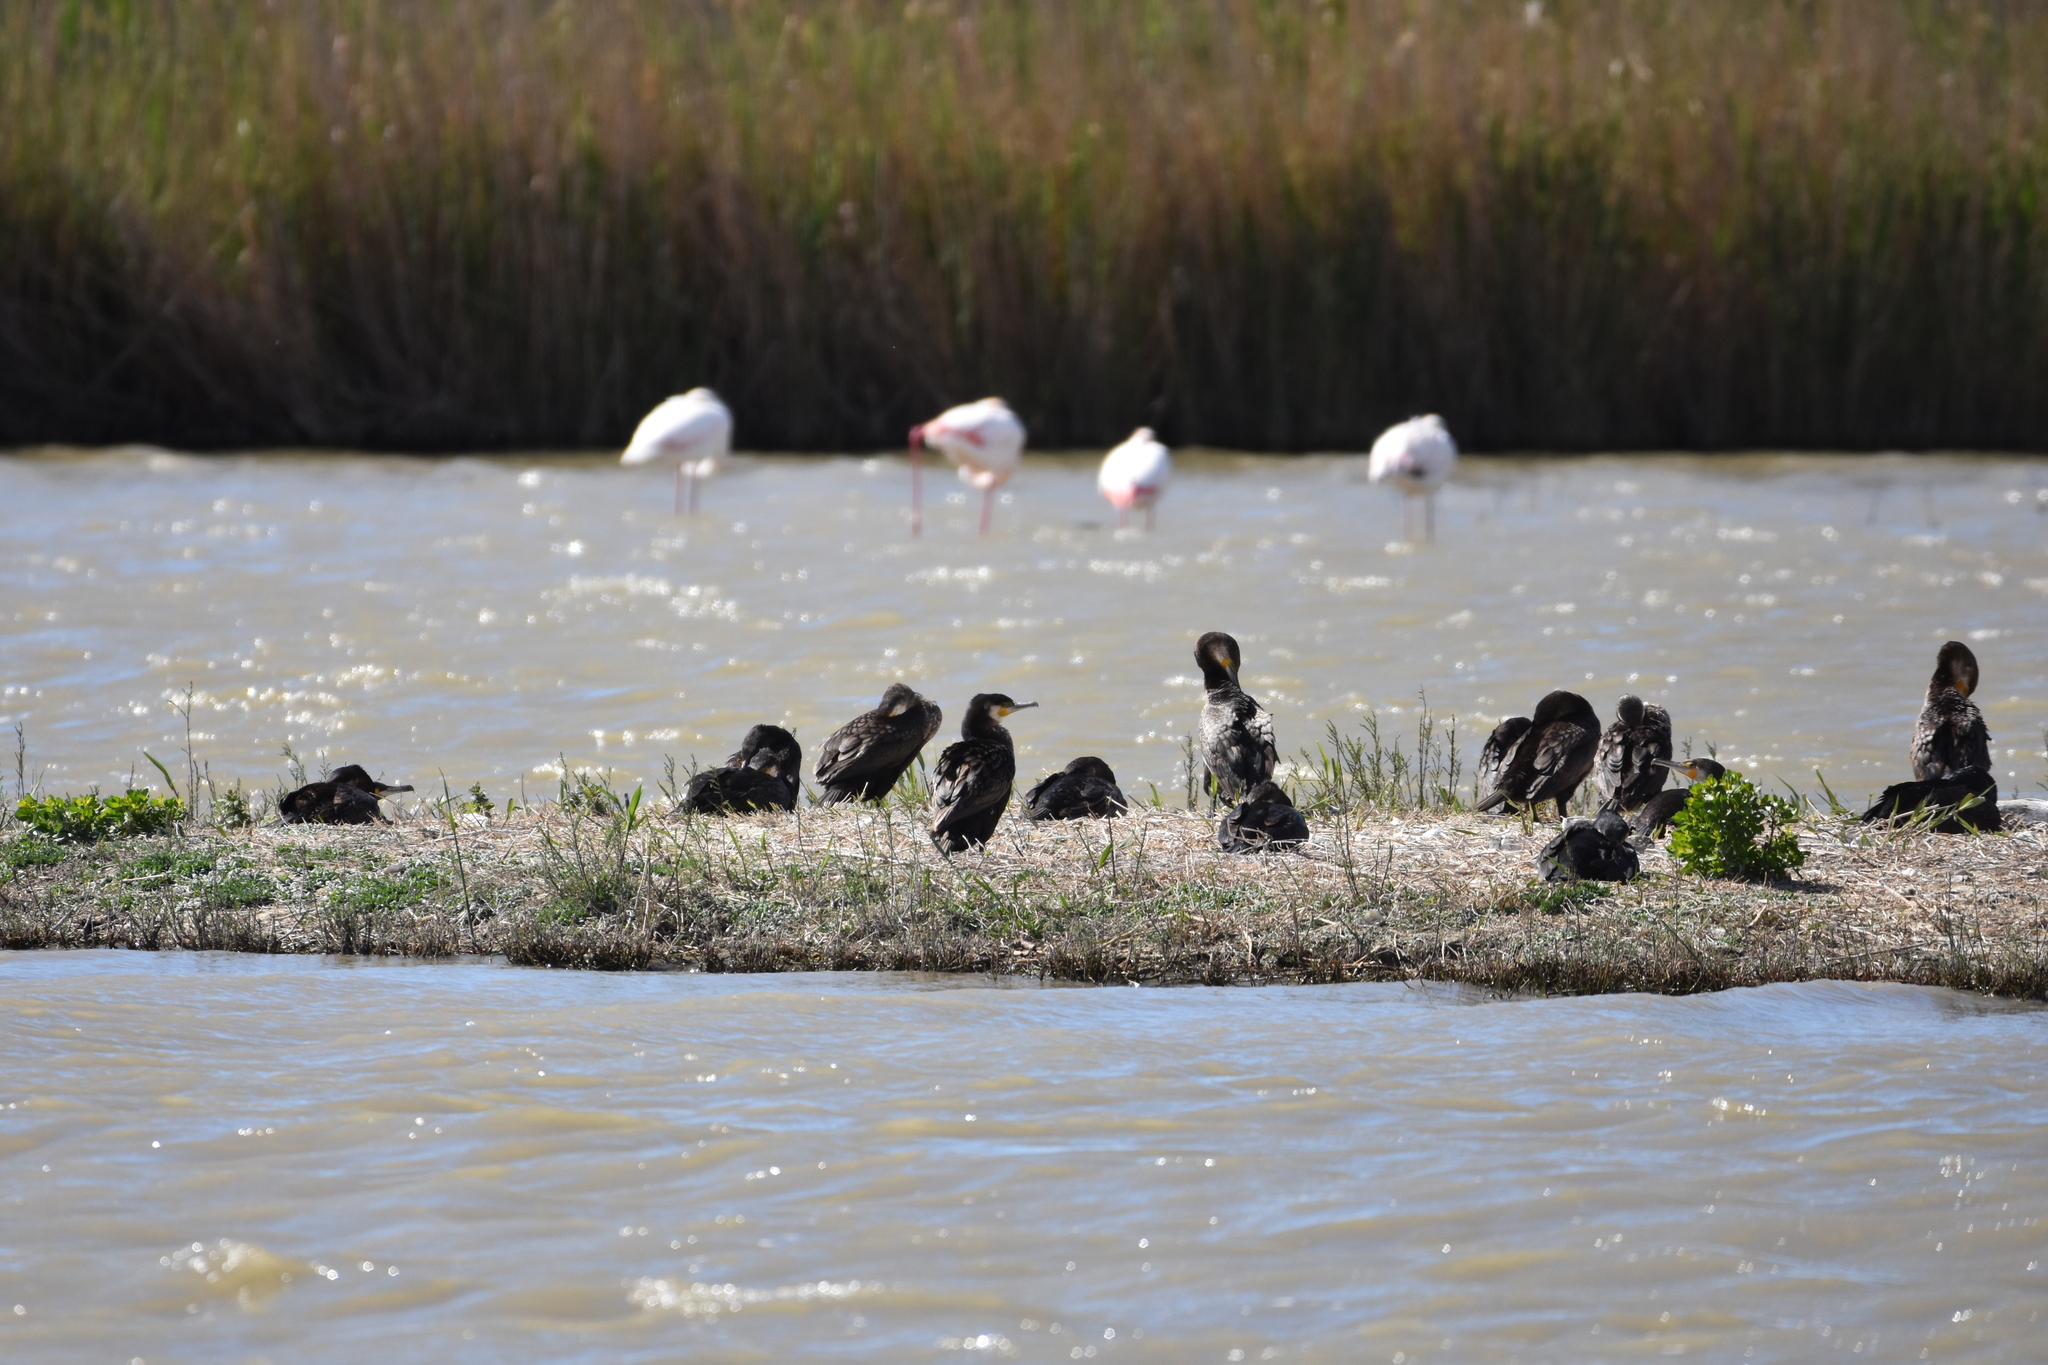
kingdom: Animalia
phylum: Chordata
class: Aves
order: Suliformes
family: Phalacrocoracidae
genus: Phalacrocorax
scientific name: Phalacrocorax carbo
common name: Great cormorant
